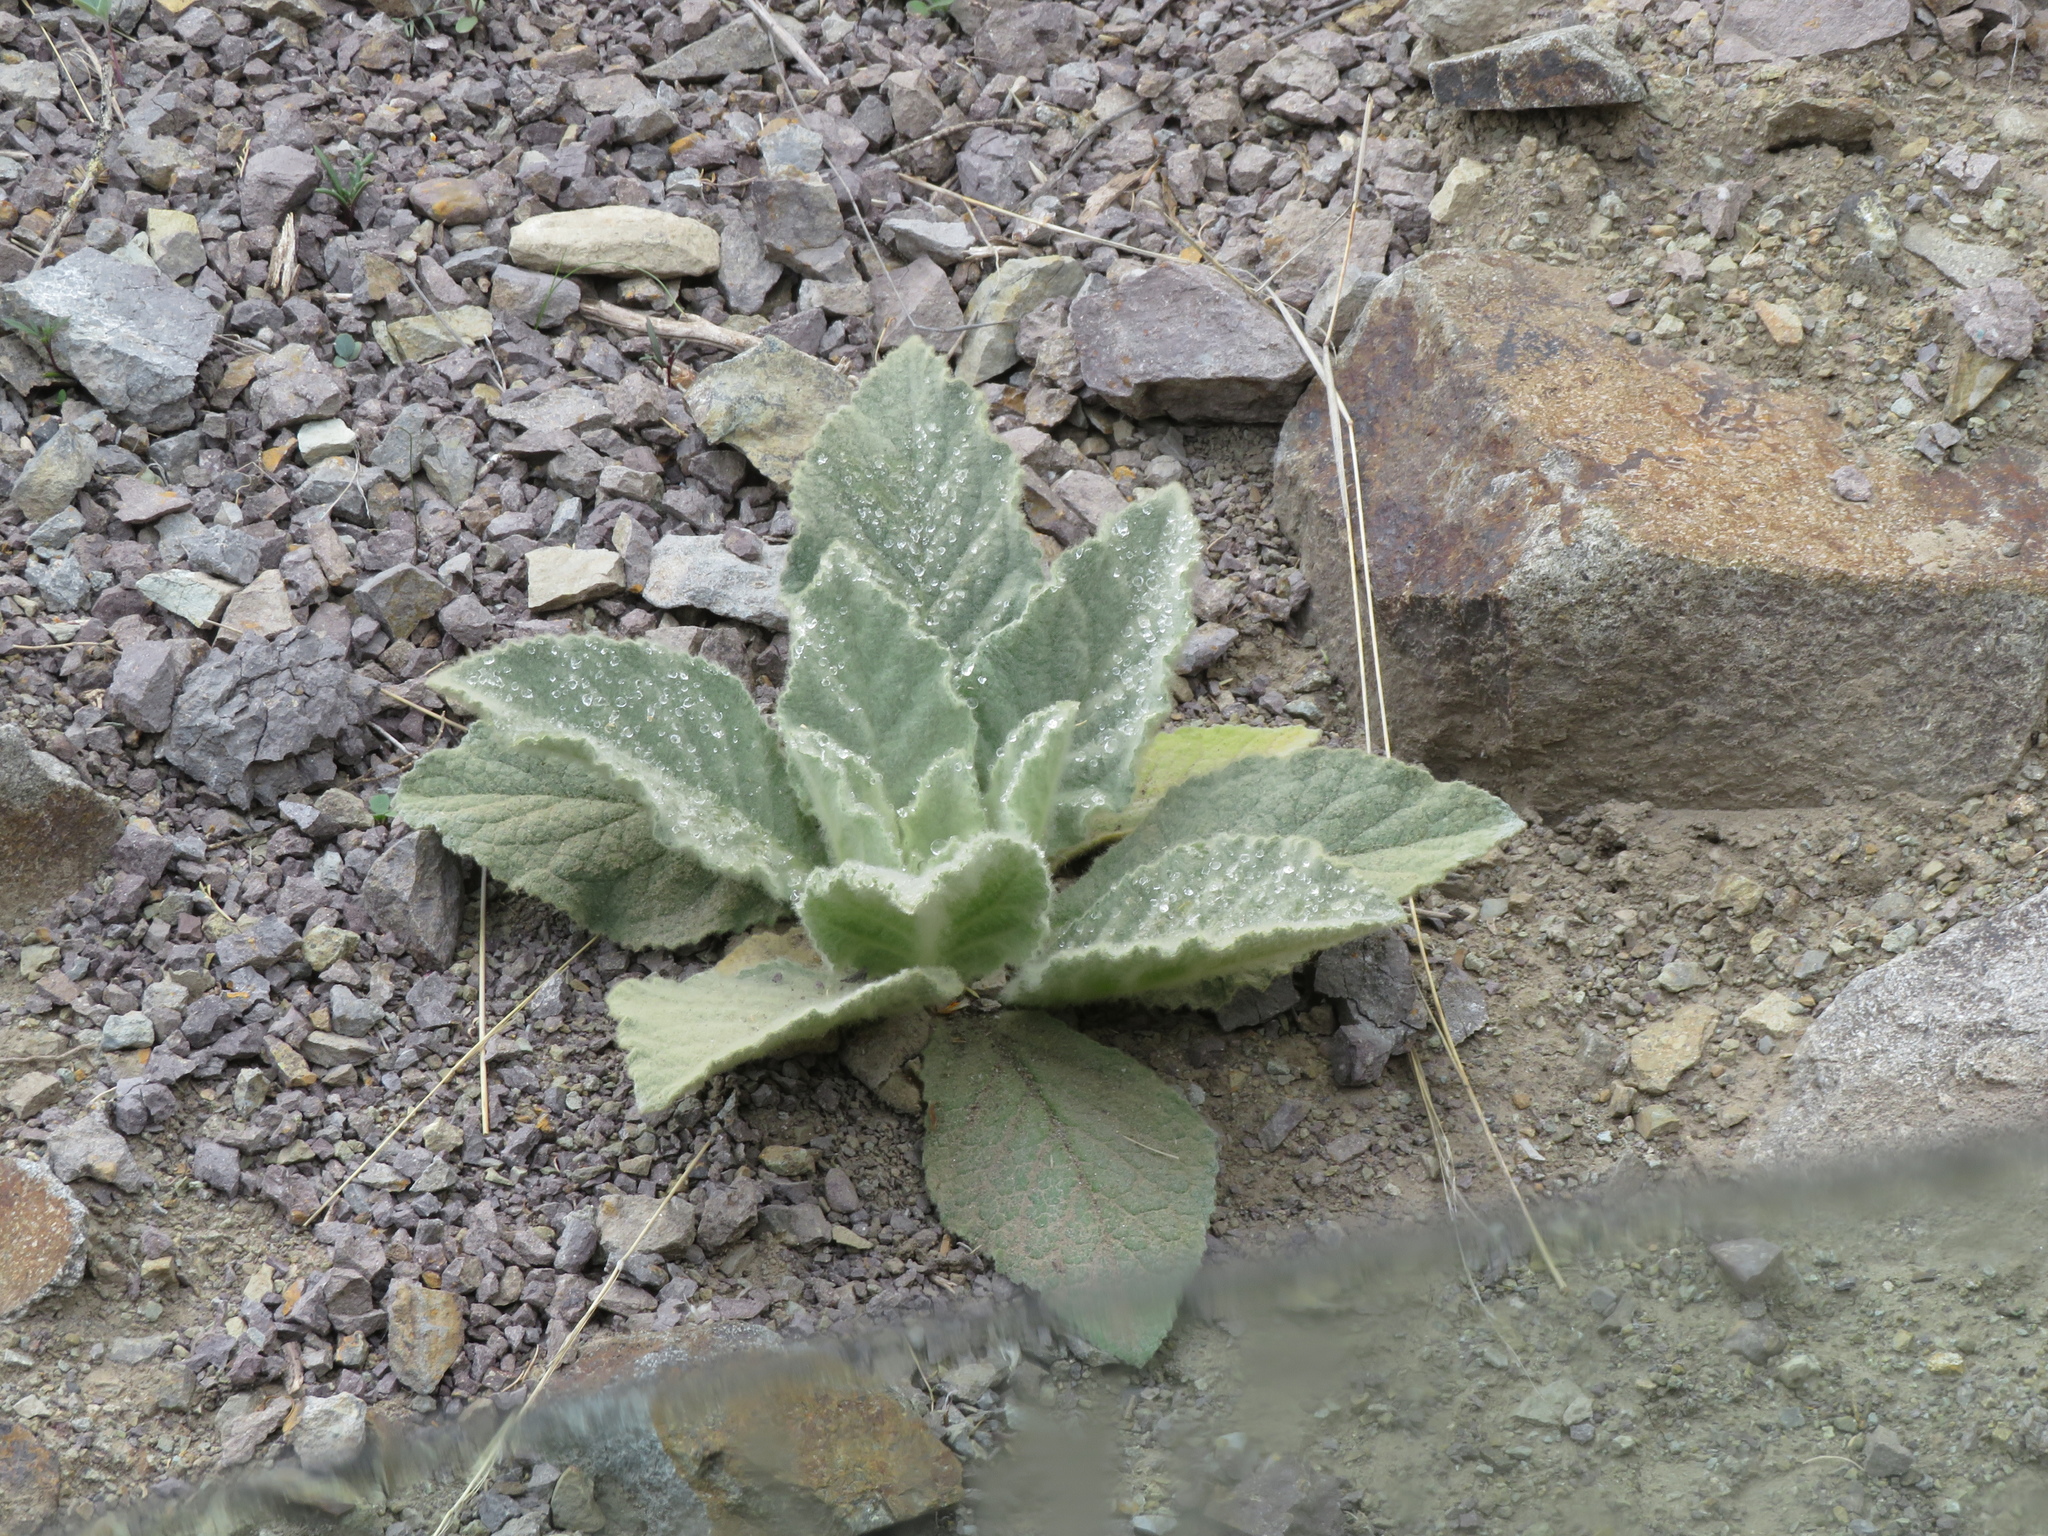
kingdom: Plantae
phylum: Tracheophyta
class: Magnoliopsida
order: Lamiales
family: Scrophulariaceae
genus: Verbascum
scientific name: Verbascum thapsus
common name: Common mullein
